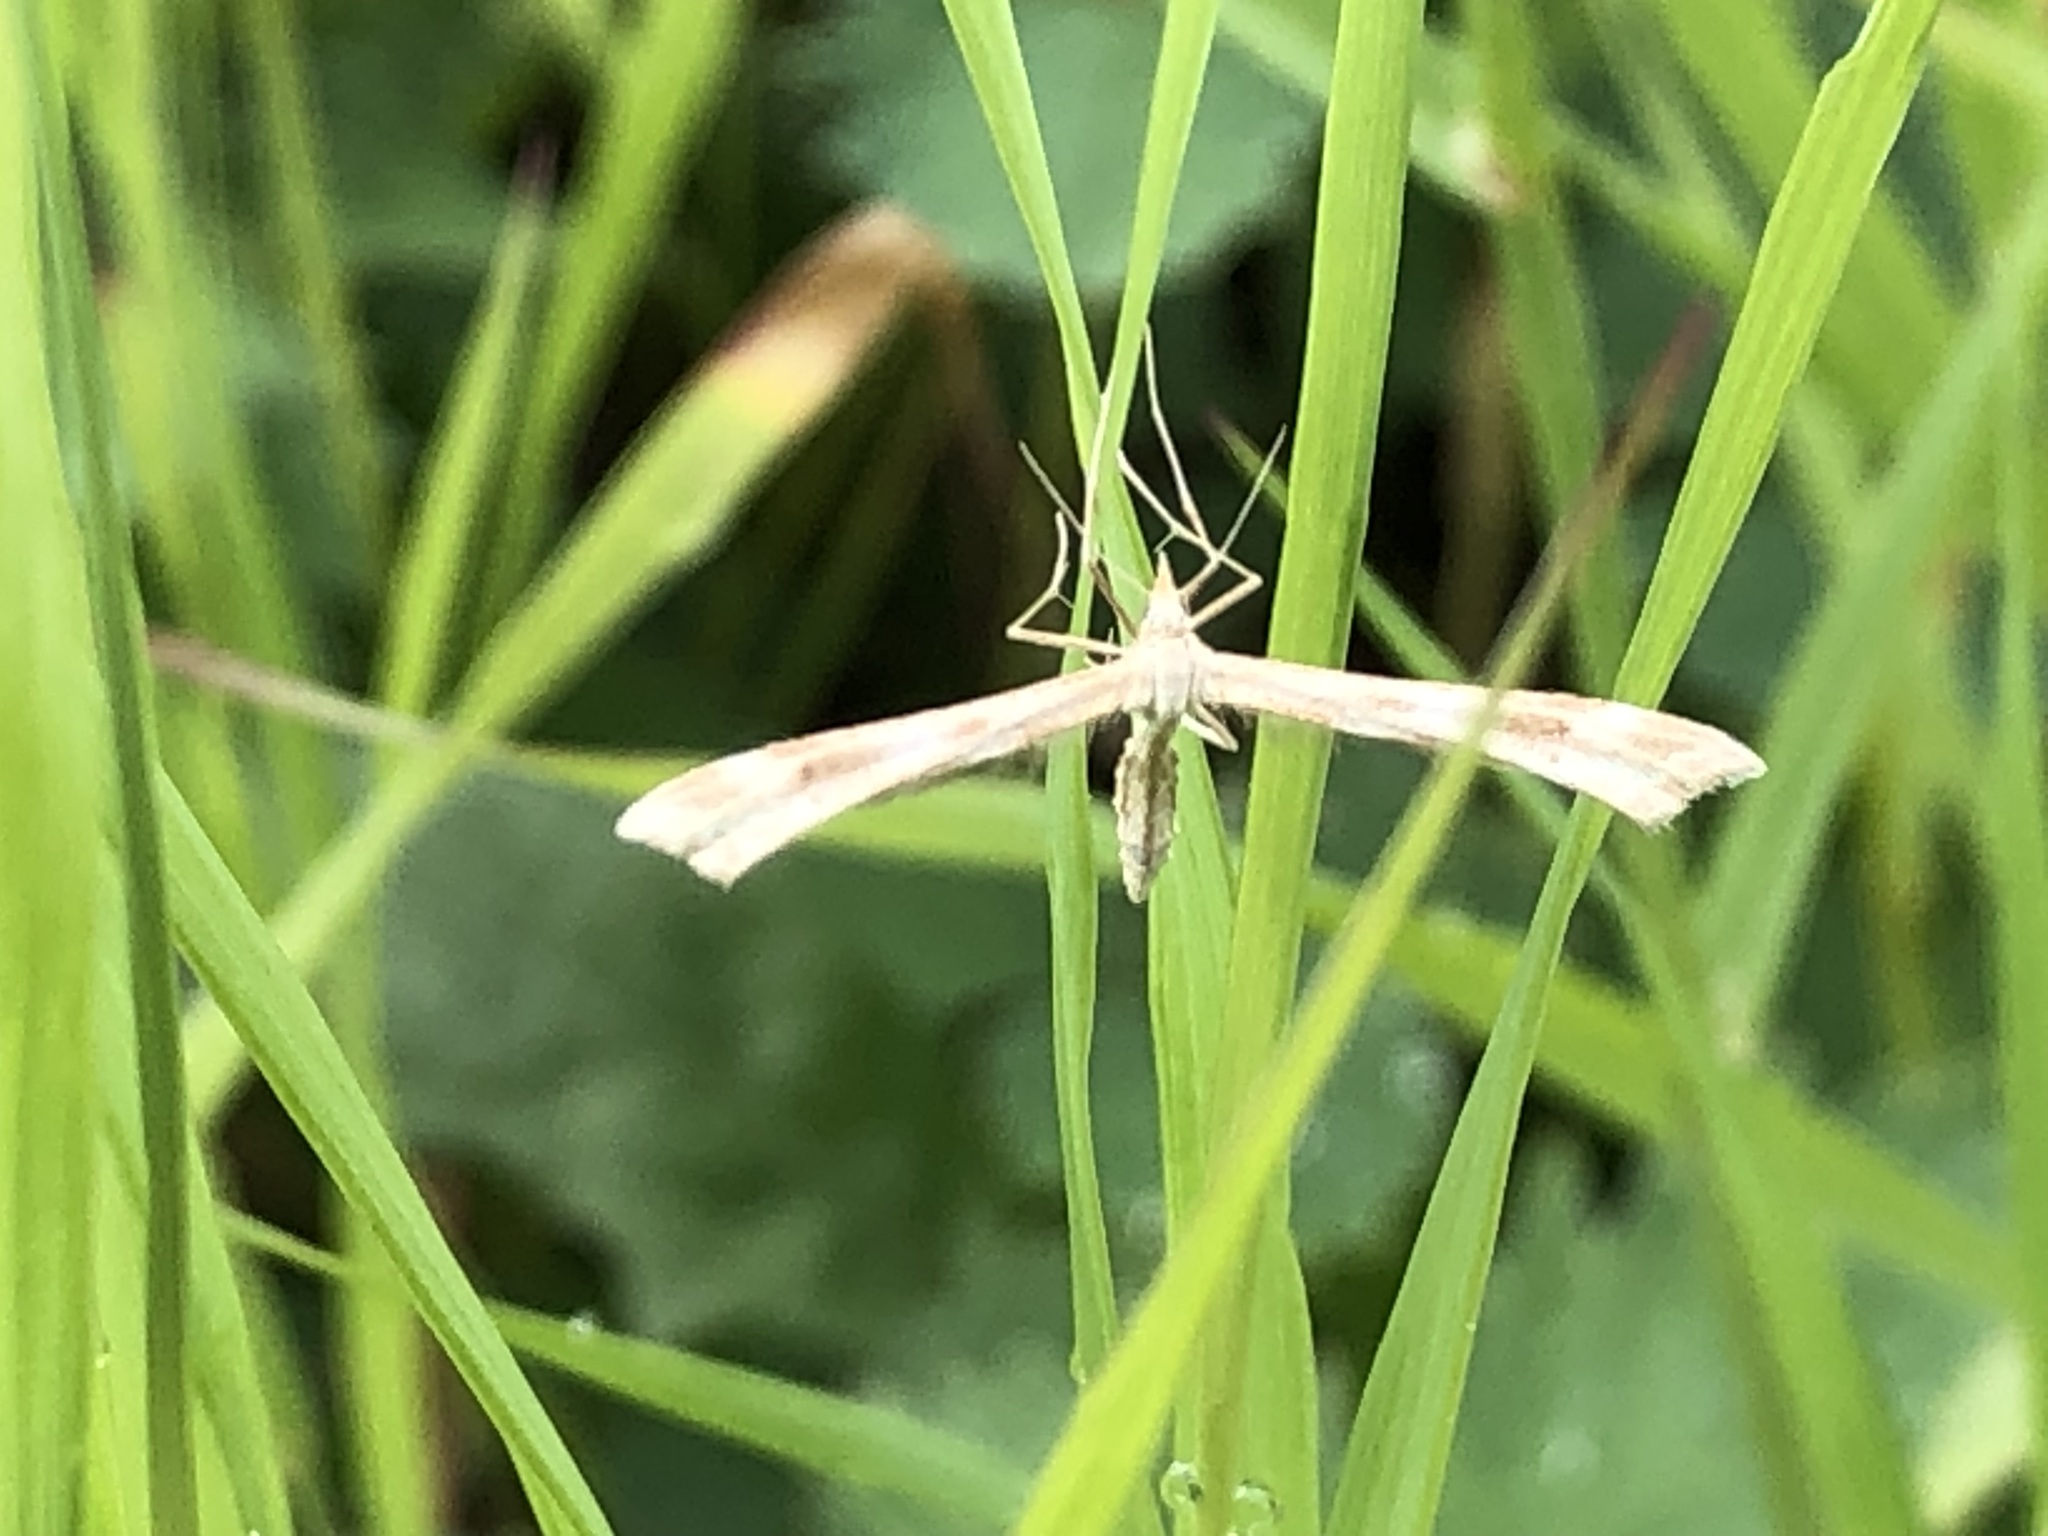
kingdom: Animalia
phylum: Arthropoda
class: Insecta
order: Lepidoptera
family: Pterophoridae
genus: Gillmeria
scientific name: Gillmeria pallidactyla
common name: Yarrow plume
